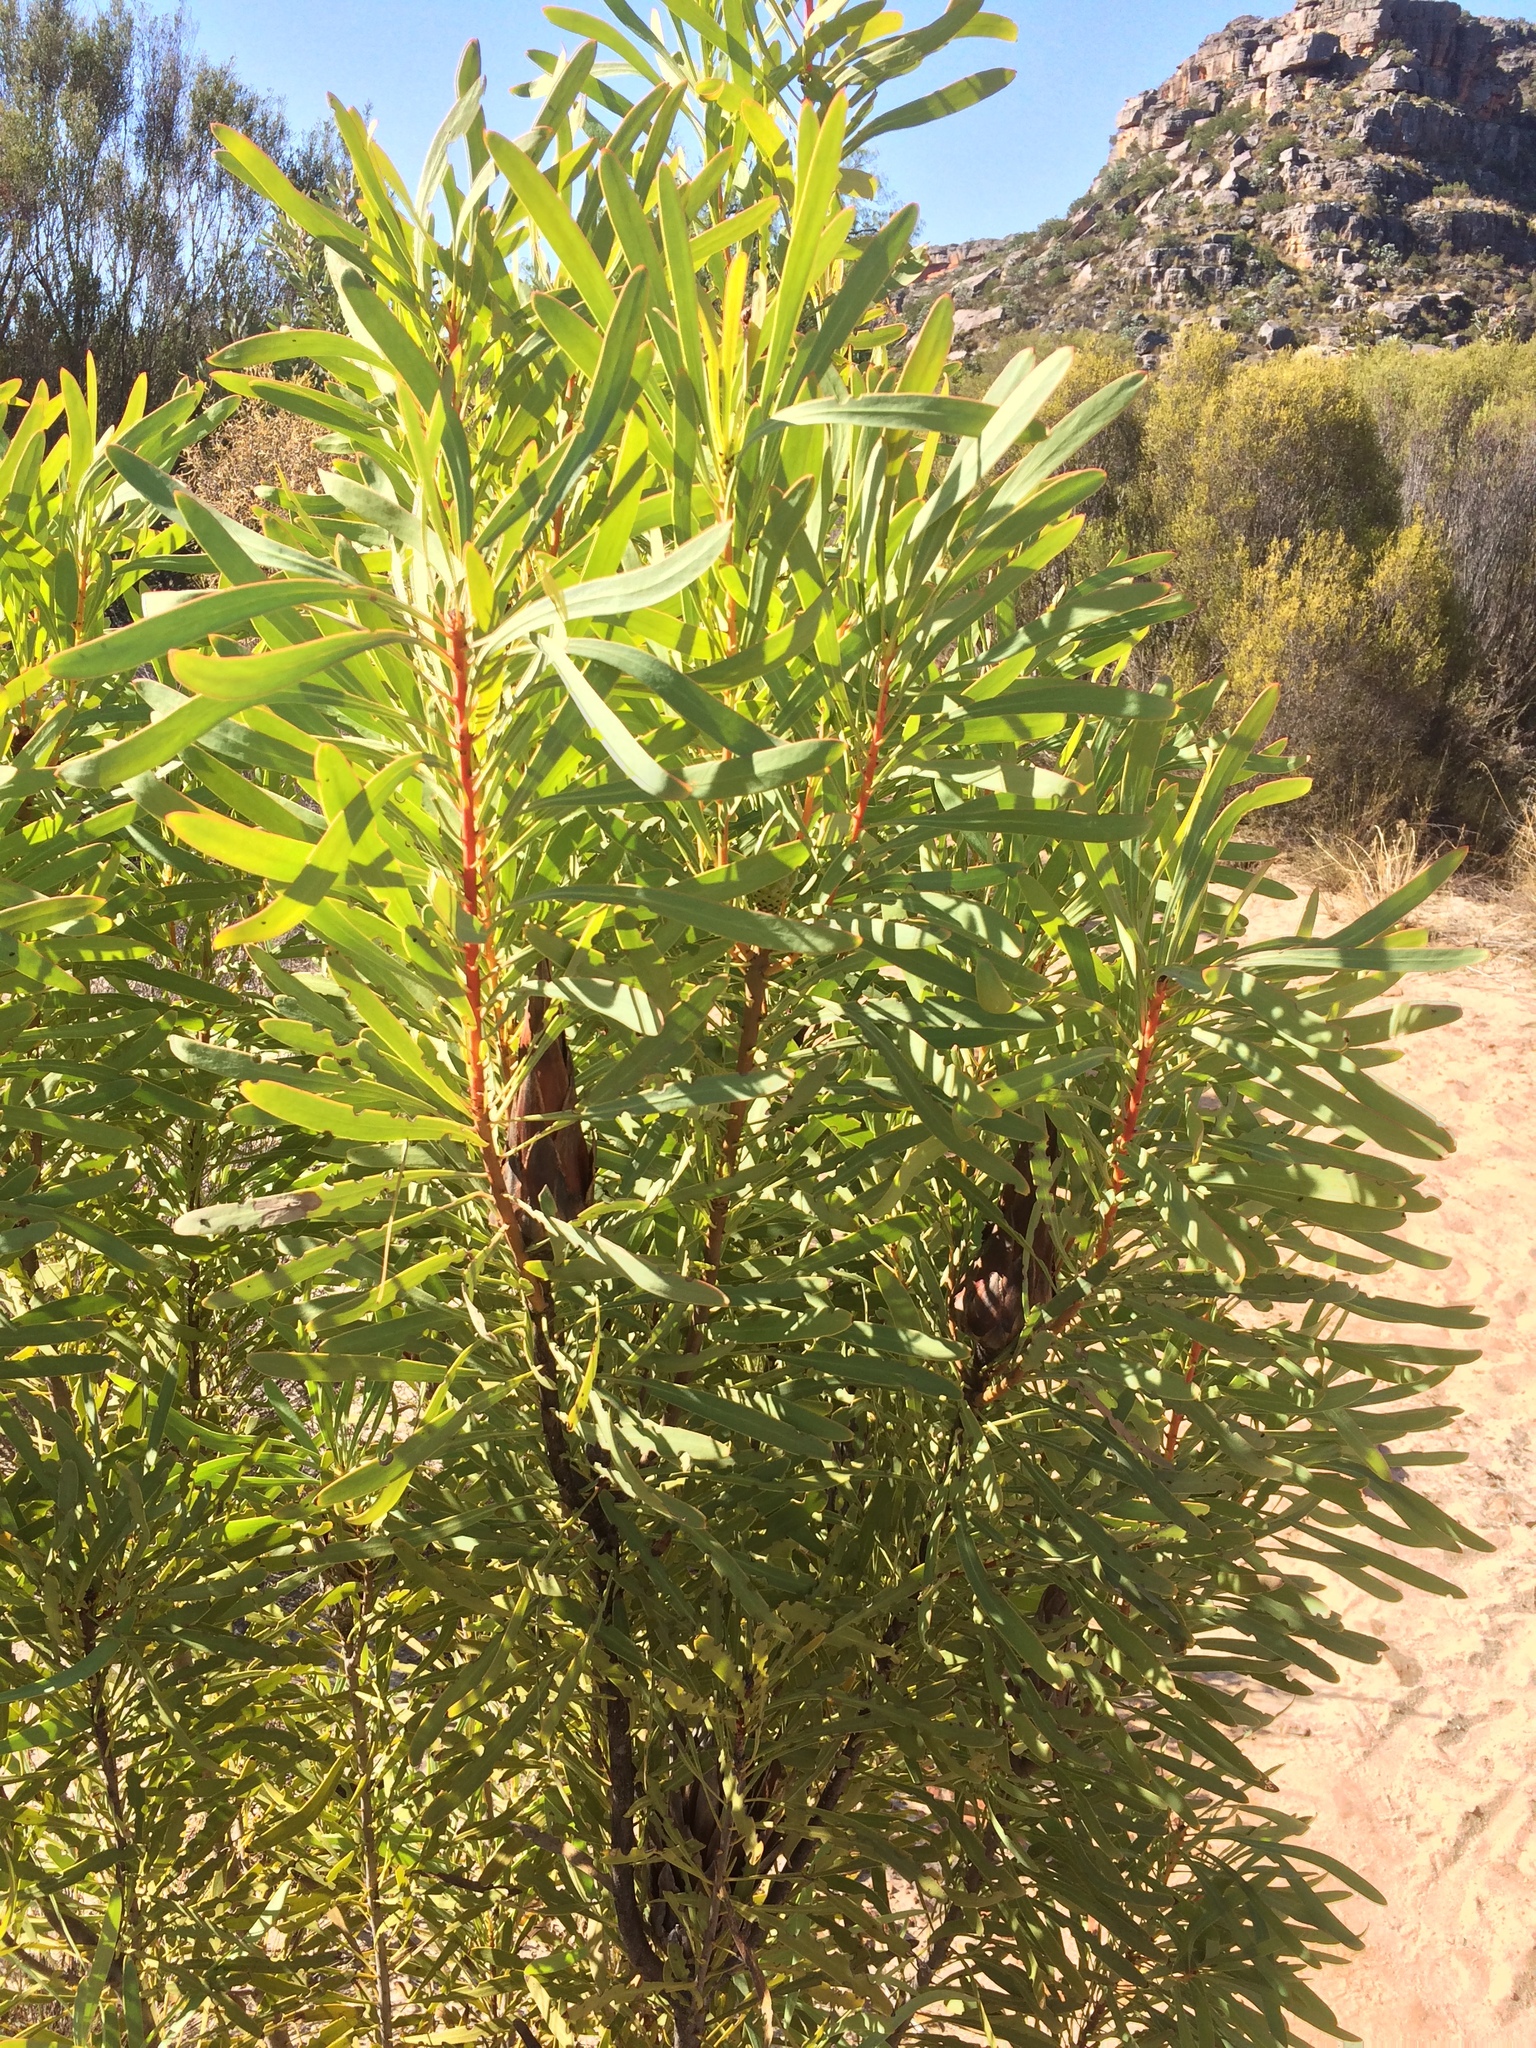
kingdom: Plantae
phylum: Tracheophyta
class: Magnoliopsida
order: Proteales
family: Proteaceae
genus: Protea
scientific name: Protea repens
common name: Sugarbush
